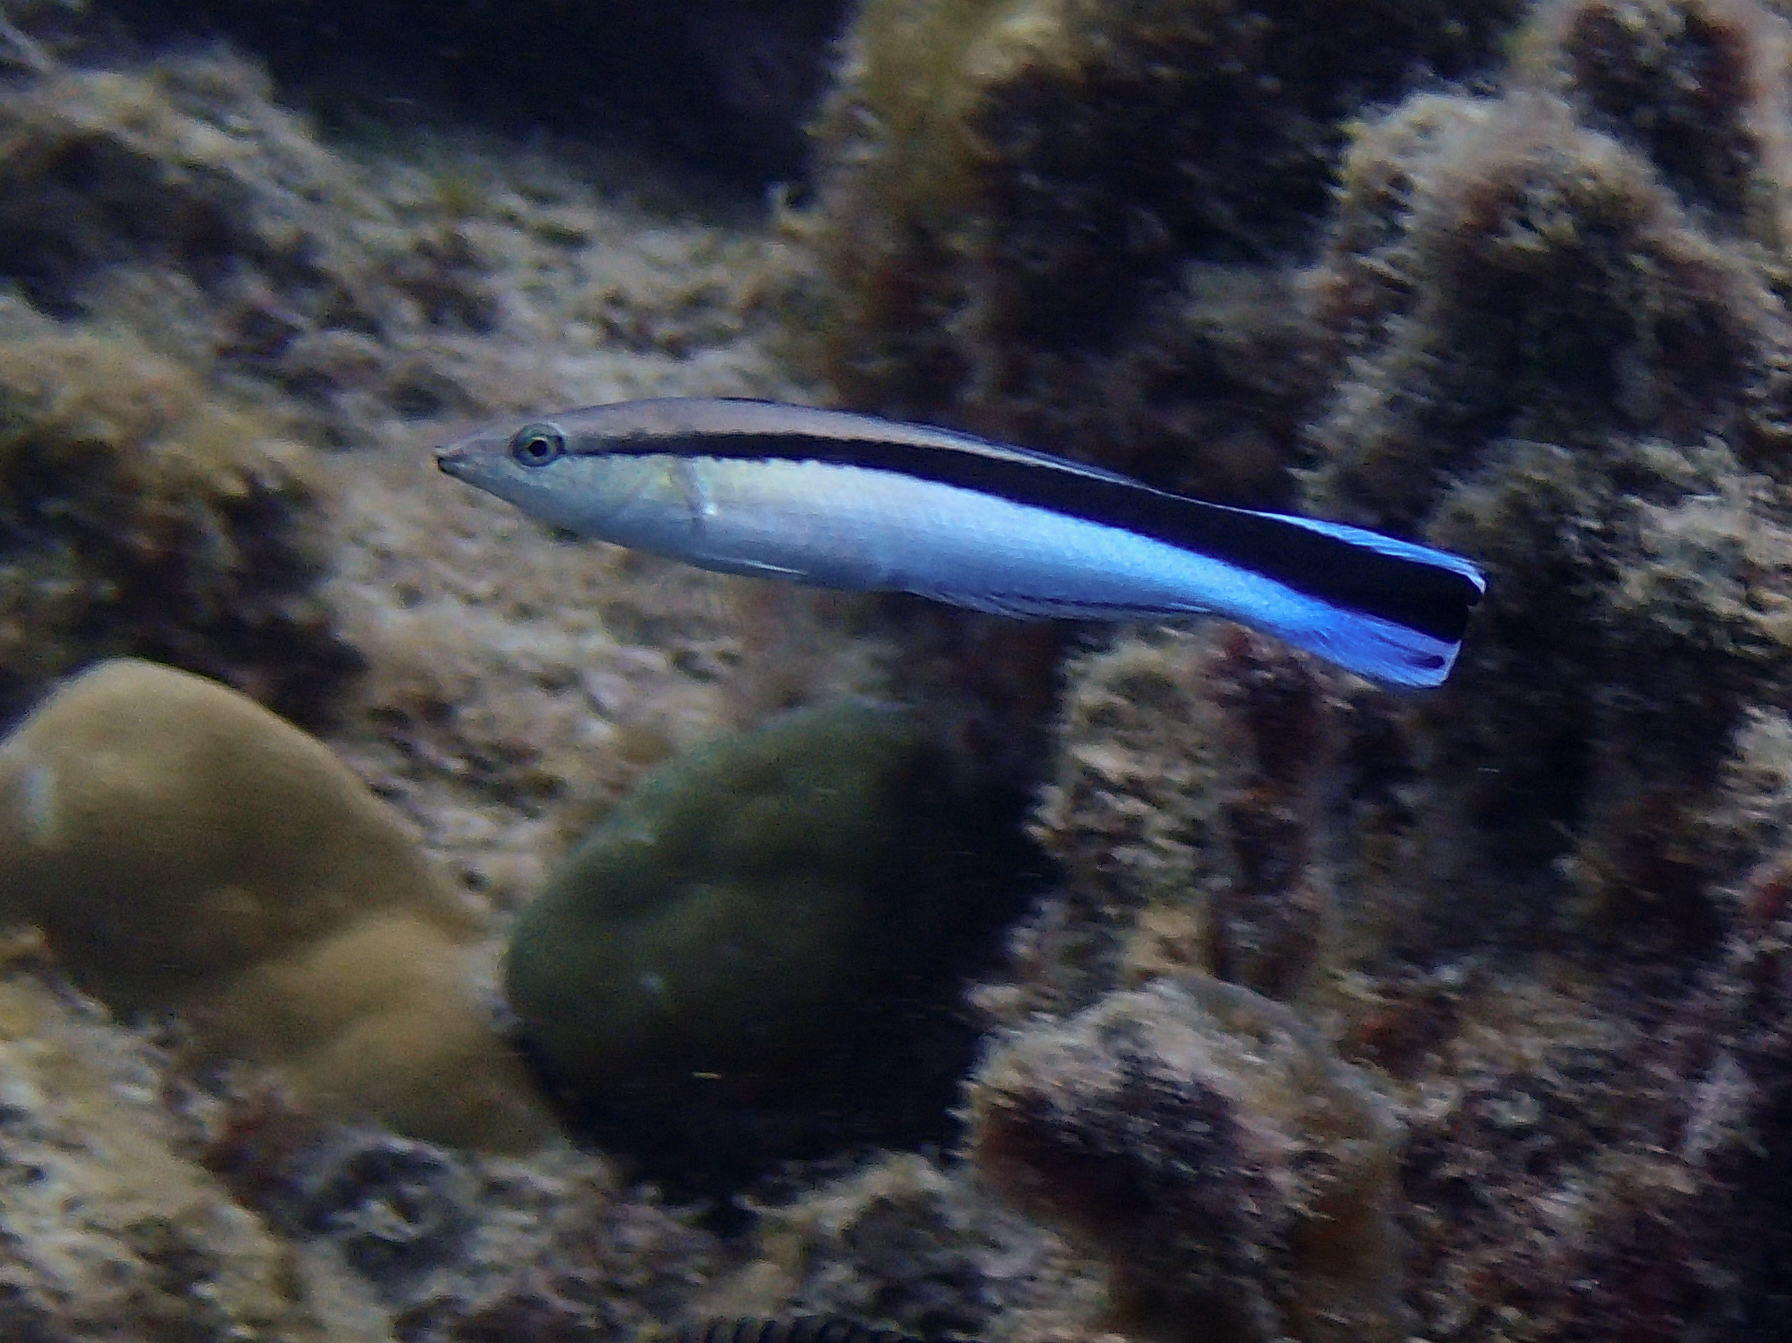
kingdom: Animalia
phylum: Chordata
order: Perciformes
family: Labridae
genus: Labroides
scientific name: Labroides dimidiatus
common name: Blue diesel wrasse
